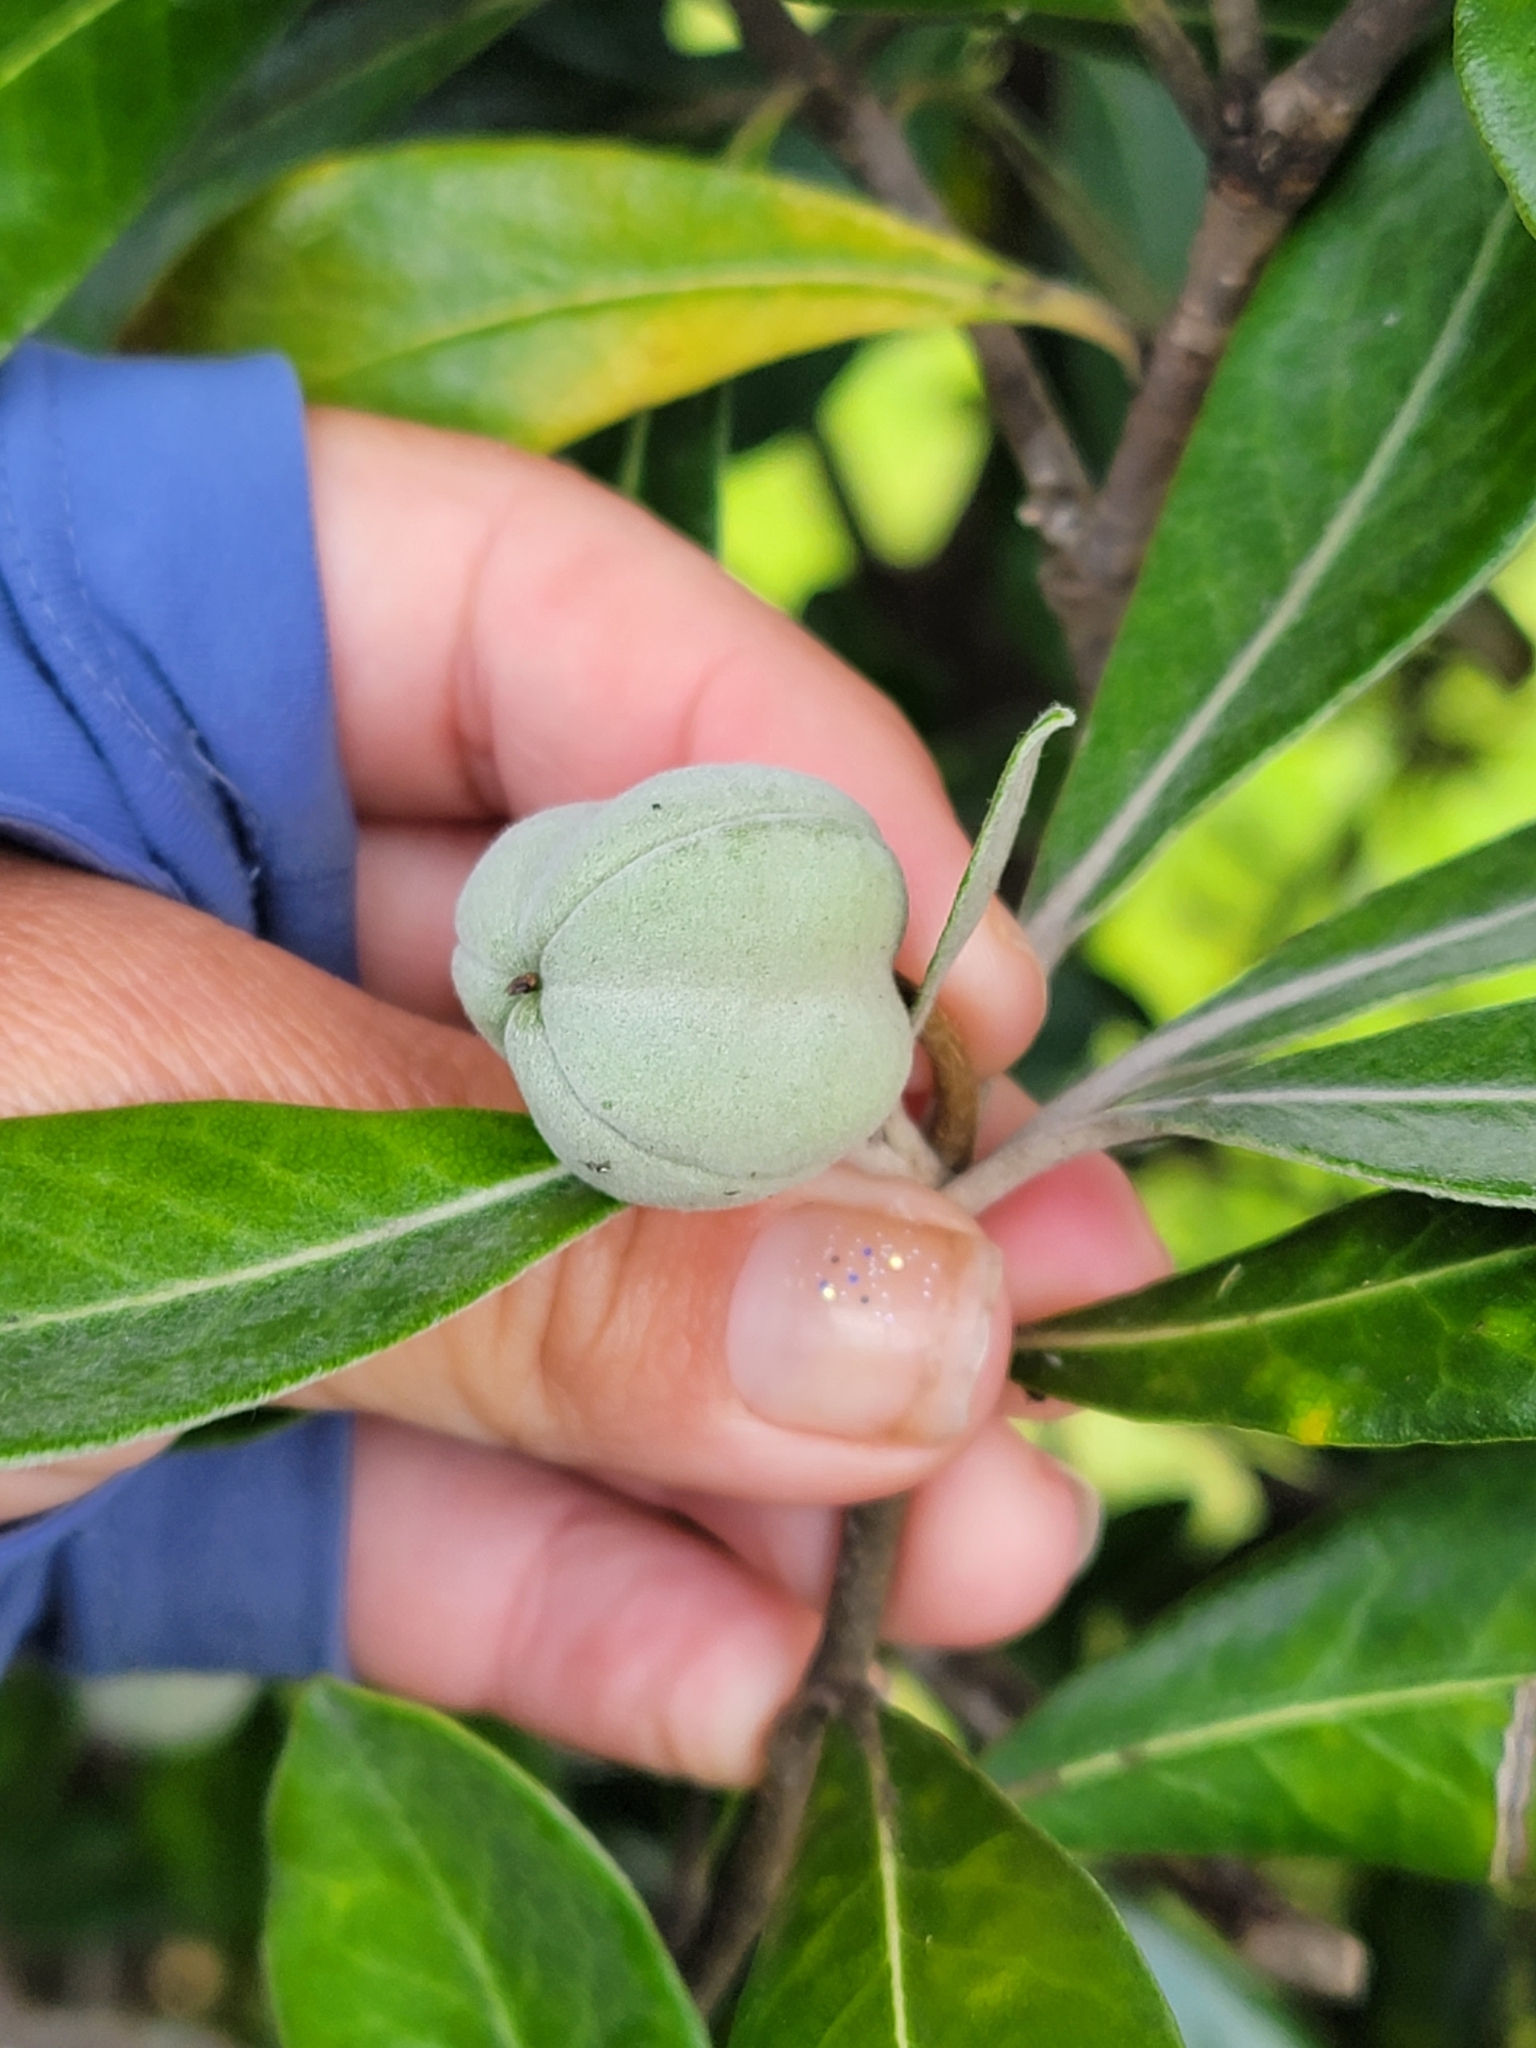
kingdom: Plantae
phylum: Tracheophyta
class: Magnoliopsida
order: Apiales
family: Pittosporaceae
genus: Pittosporum
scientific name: Pittosporum crassifolium
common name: Karo
